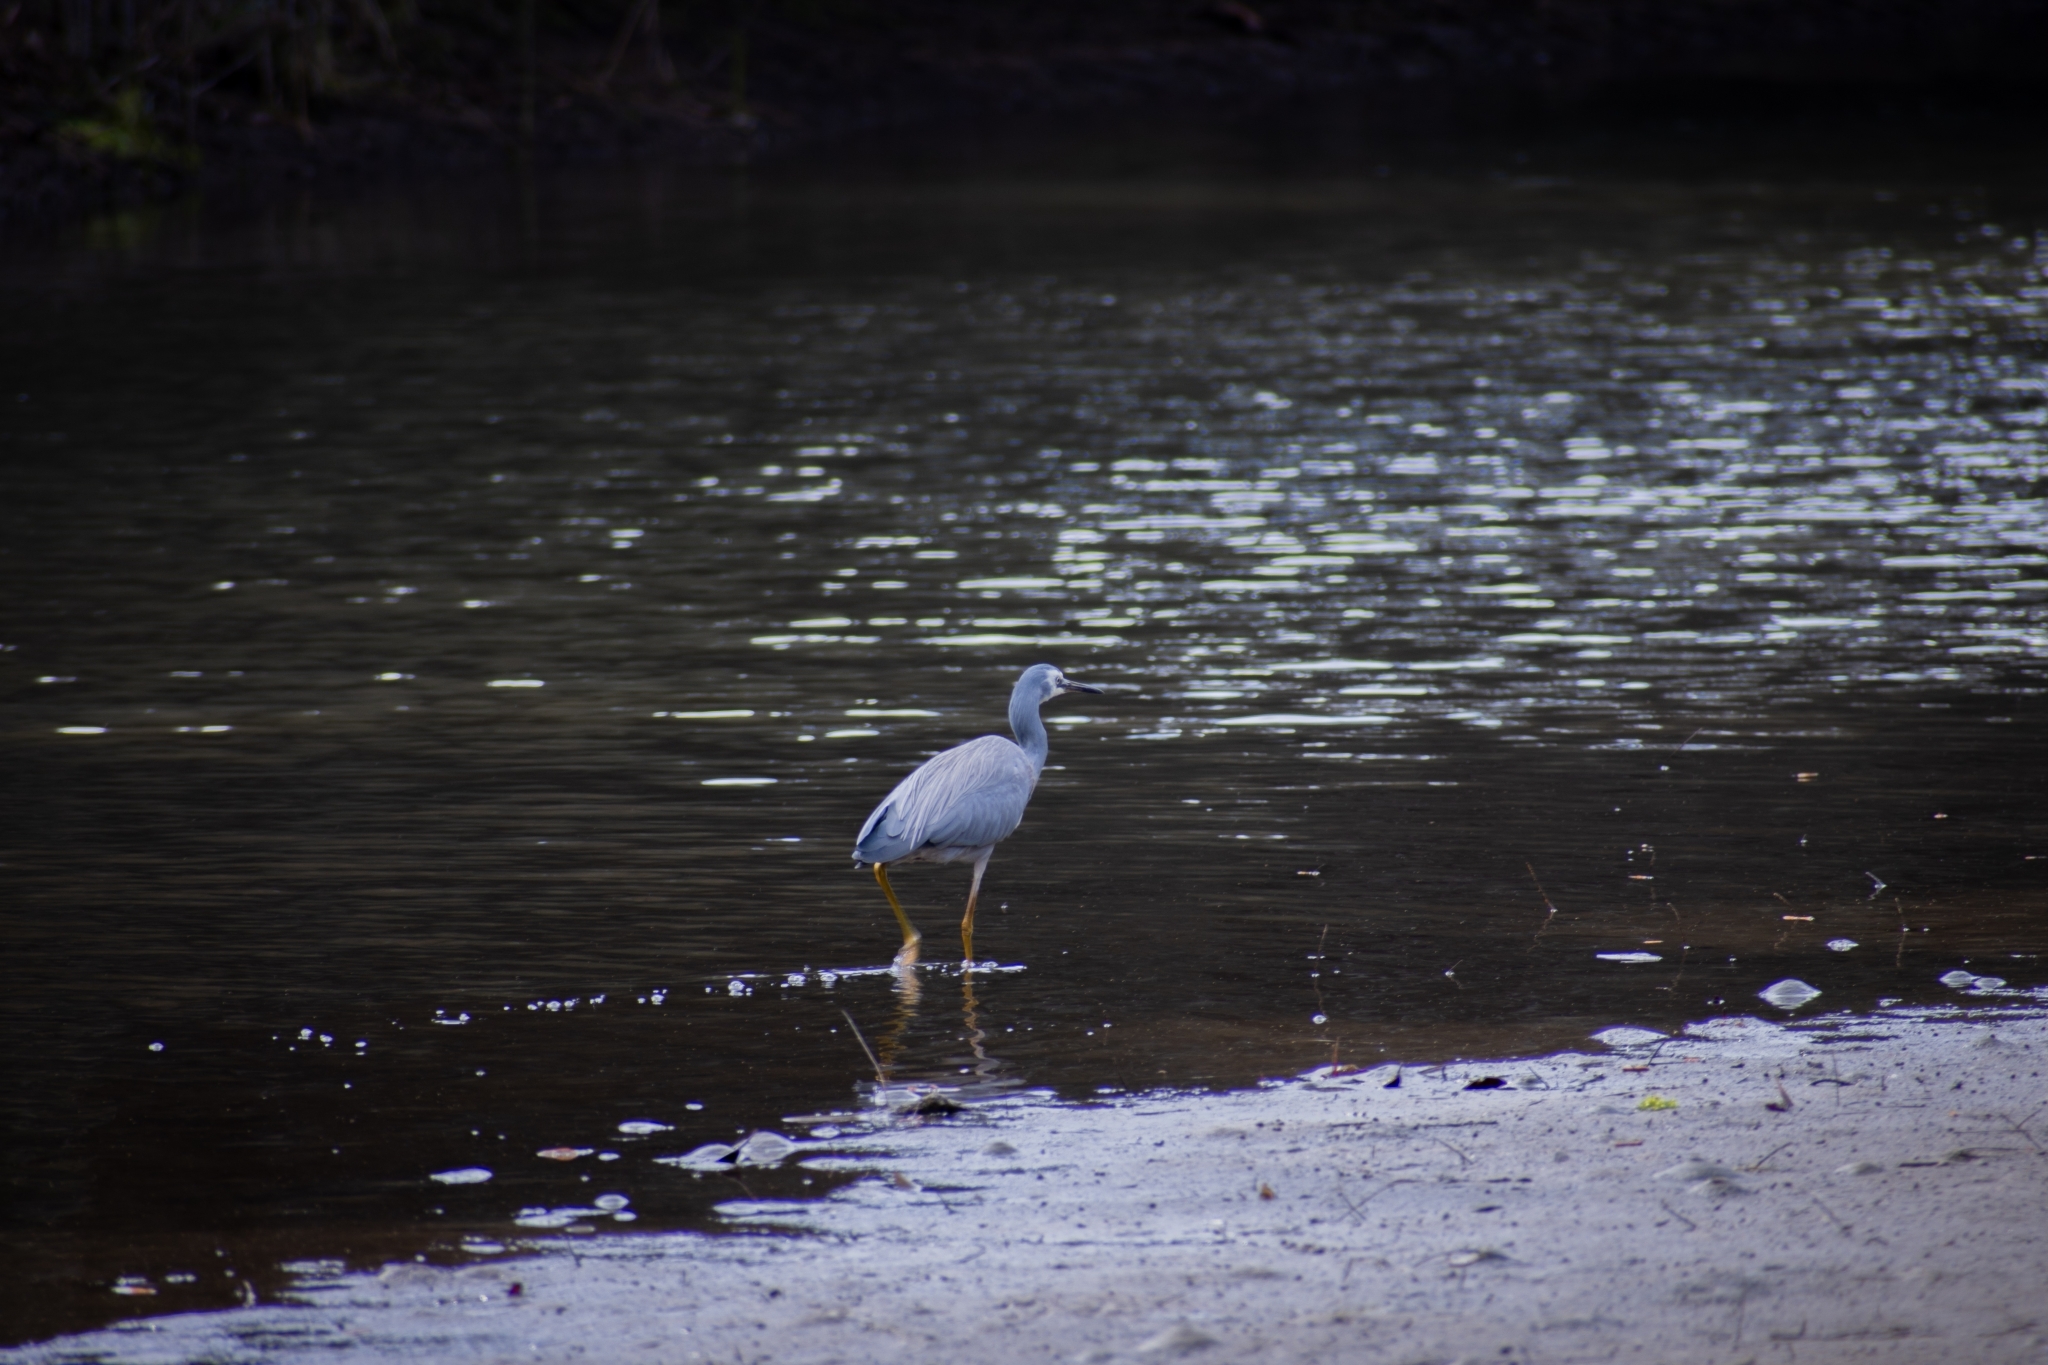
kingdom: Animalia
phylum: Chordata
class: Aves
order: Pelecaniformes
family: Ardeidae
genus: Egretta
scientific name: Egretta novaehollandiae
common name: White-faced heron
